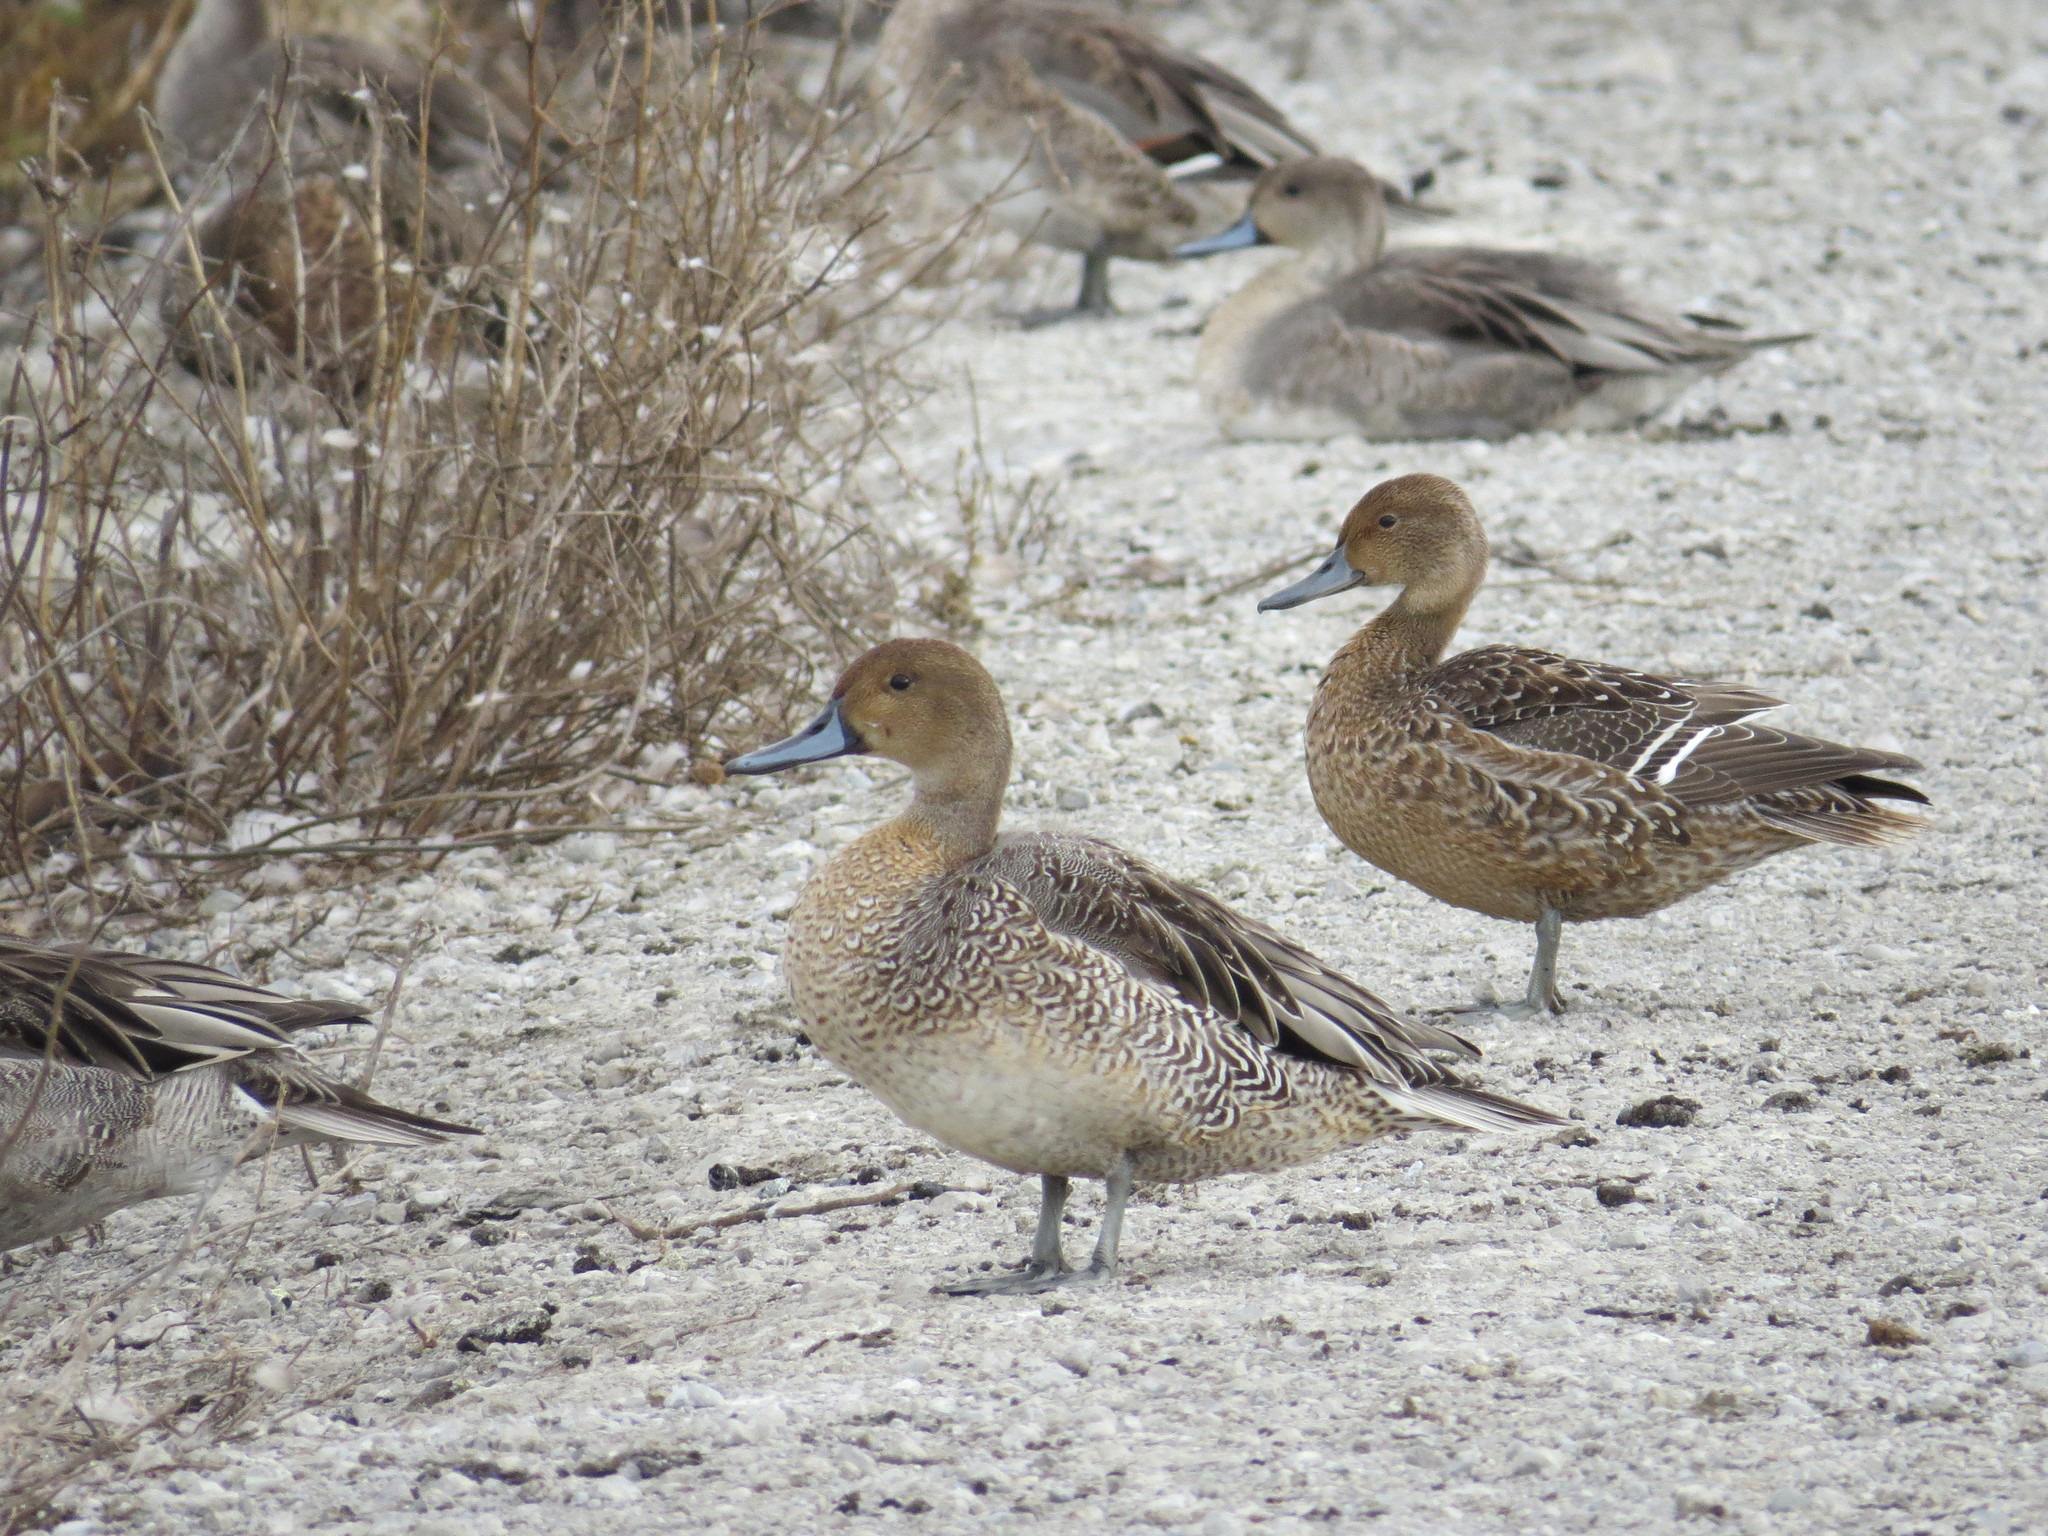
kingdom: Animalia
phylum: Chordata
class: Aves
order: Anseriformes
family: Anatidae
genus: Anas
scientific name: Anas acuta
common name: Northern pintail
